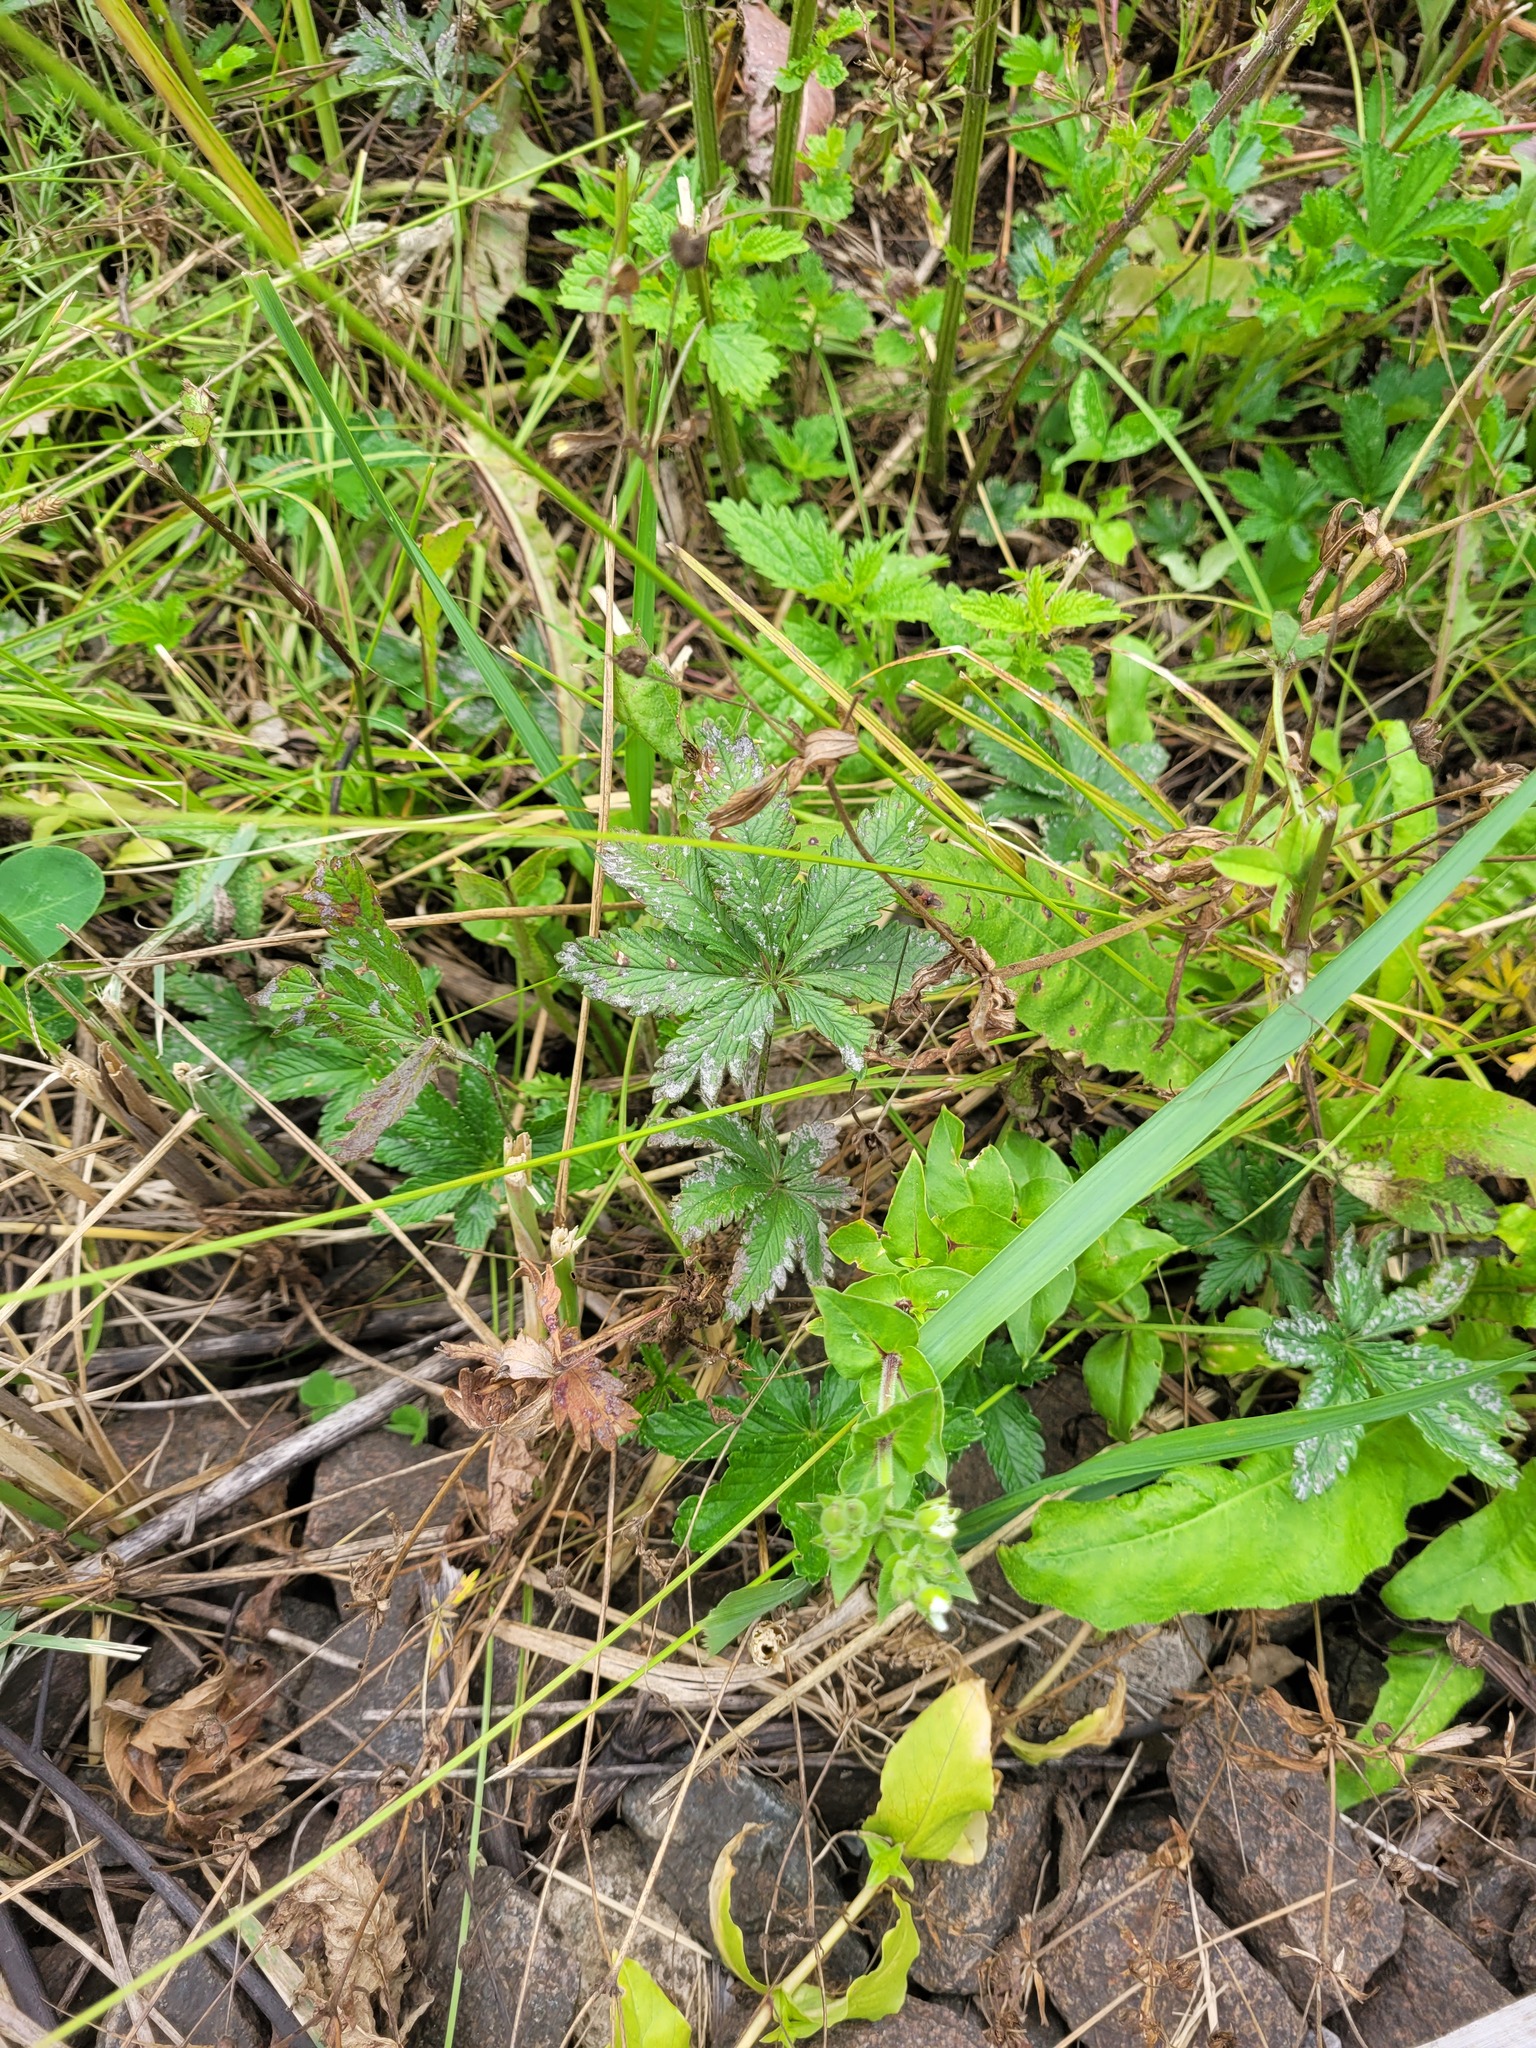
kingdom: Plantae
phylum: Tracheophyta
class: Magnoliopsida
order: Rosales
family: Rosaceae
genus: Potentilla
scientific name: Potentilla thuringiaca
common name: European cinquefoil
